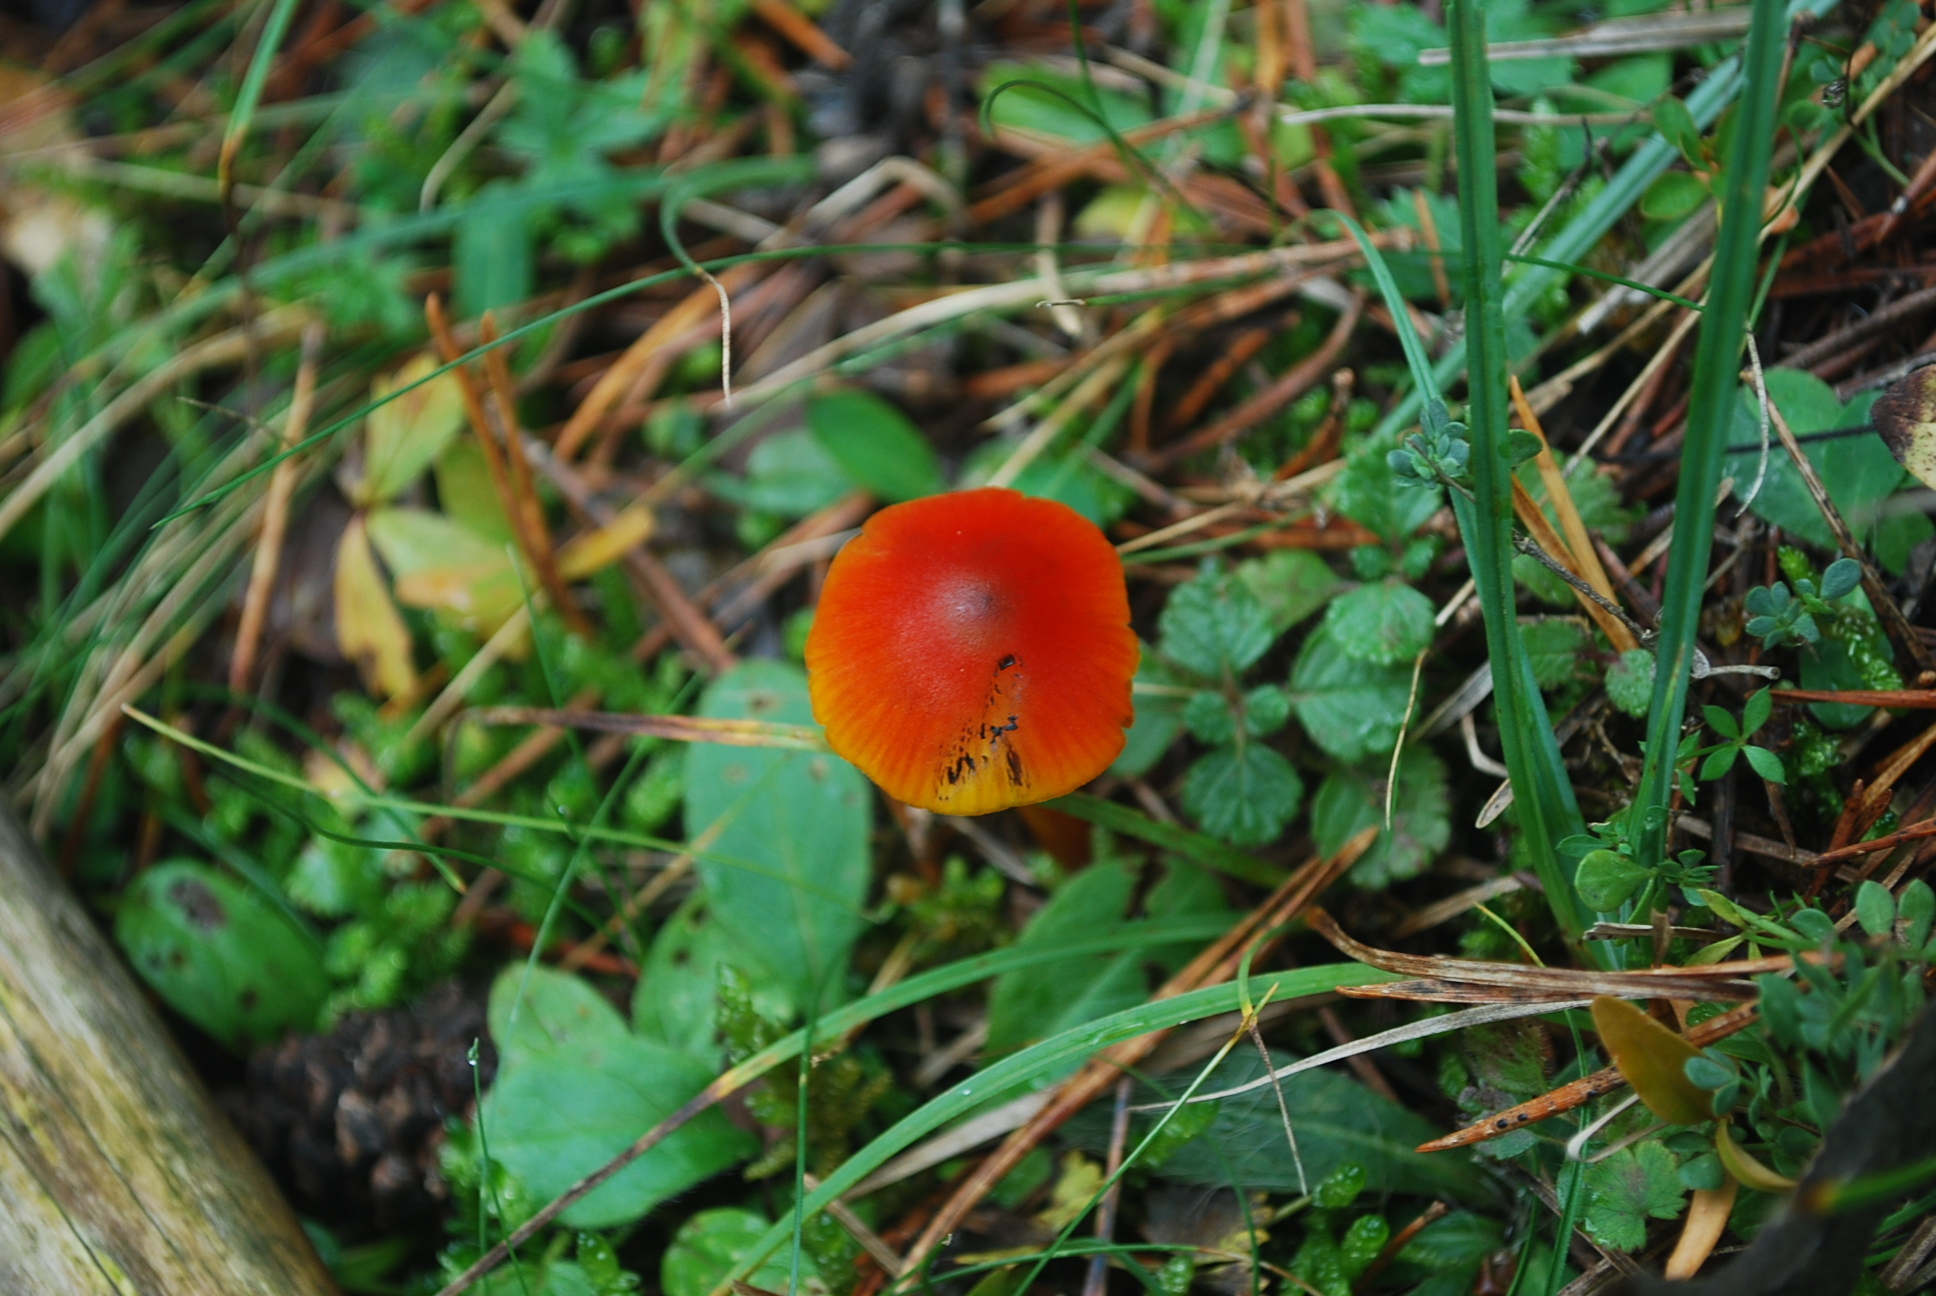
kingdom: Fungi
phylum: Basidiomycota
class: Agaricomycetes
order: Agaricales
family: Hygrophoraceae
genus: Hygrocybe
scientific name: Hygrocybe conica
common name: Blackening wax-cap
